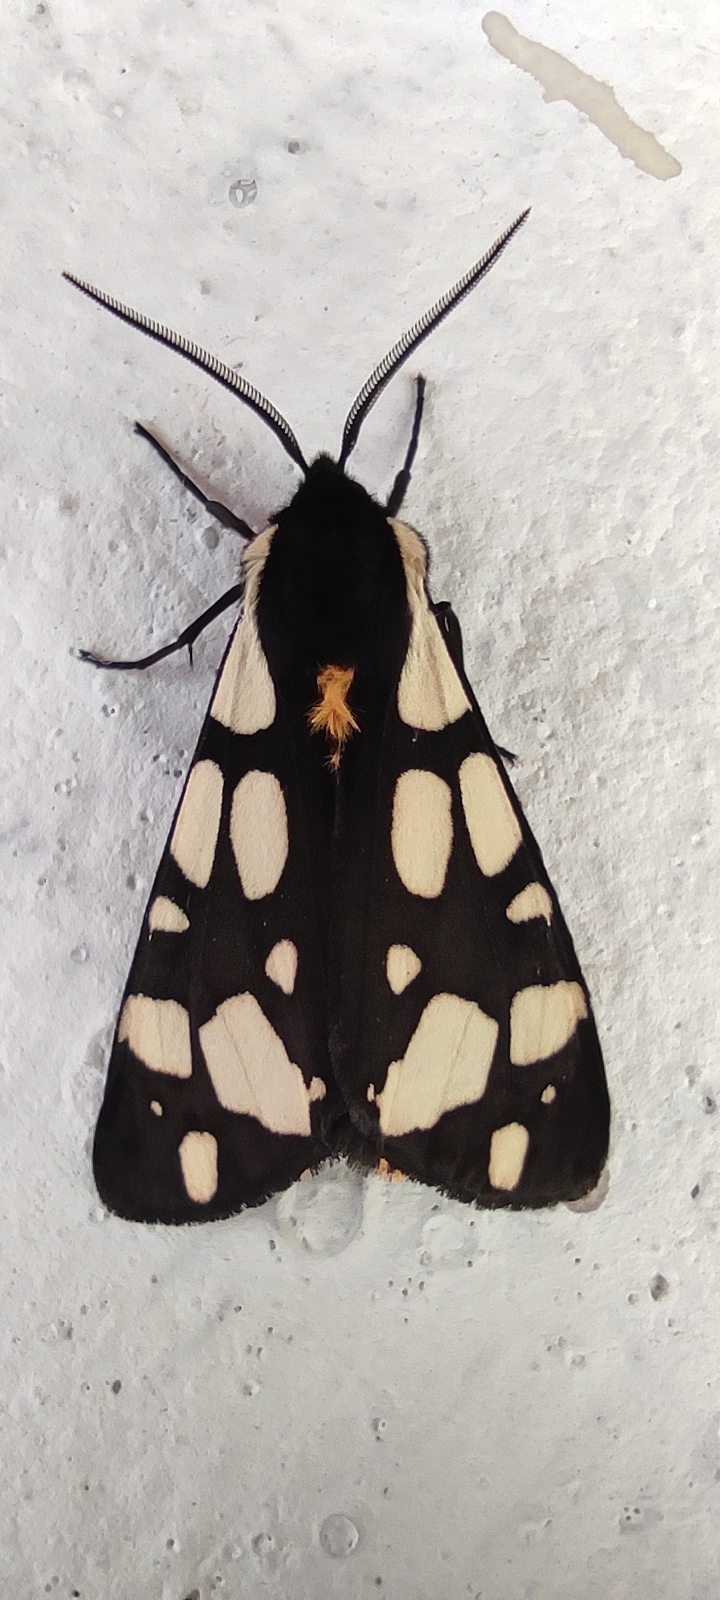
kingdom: Animalia
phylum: Arthropoda
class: Insecta
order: Lepidoptera
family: Erebidae
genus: Epicallia
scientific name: Epicallia villica
